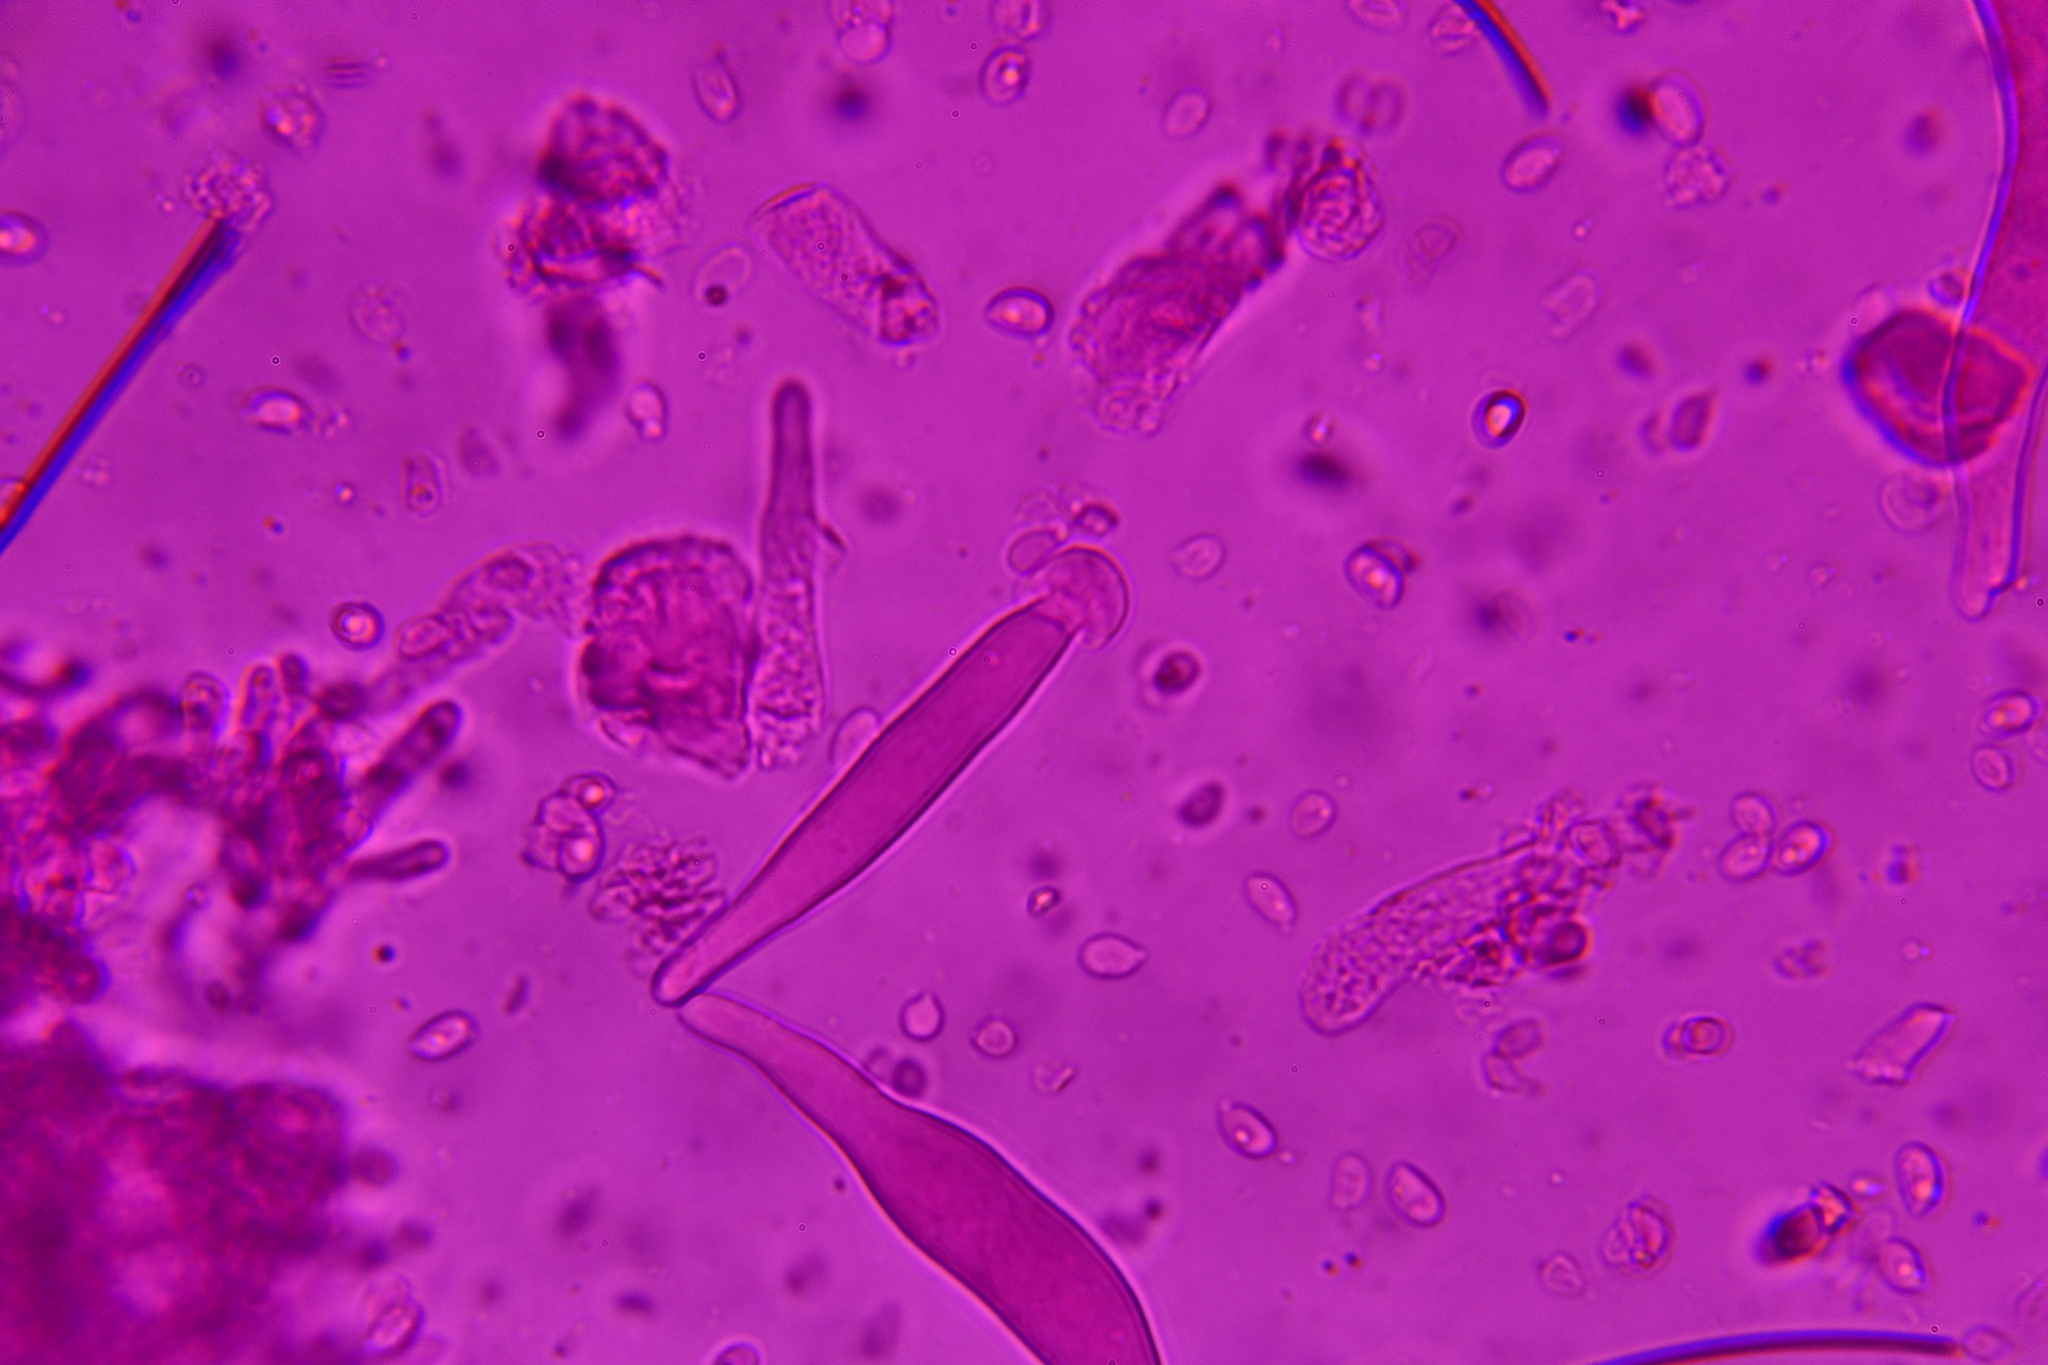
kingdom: Fungi
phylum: Basidiomycota
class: Agaricomycetes
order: Agaricales
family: Marasmiaceae
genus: Marasmius
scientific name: Marasmius nigrodiscus
